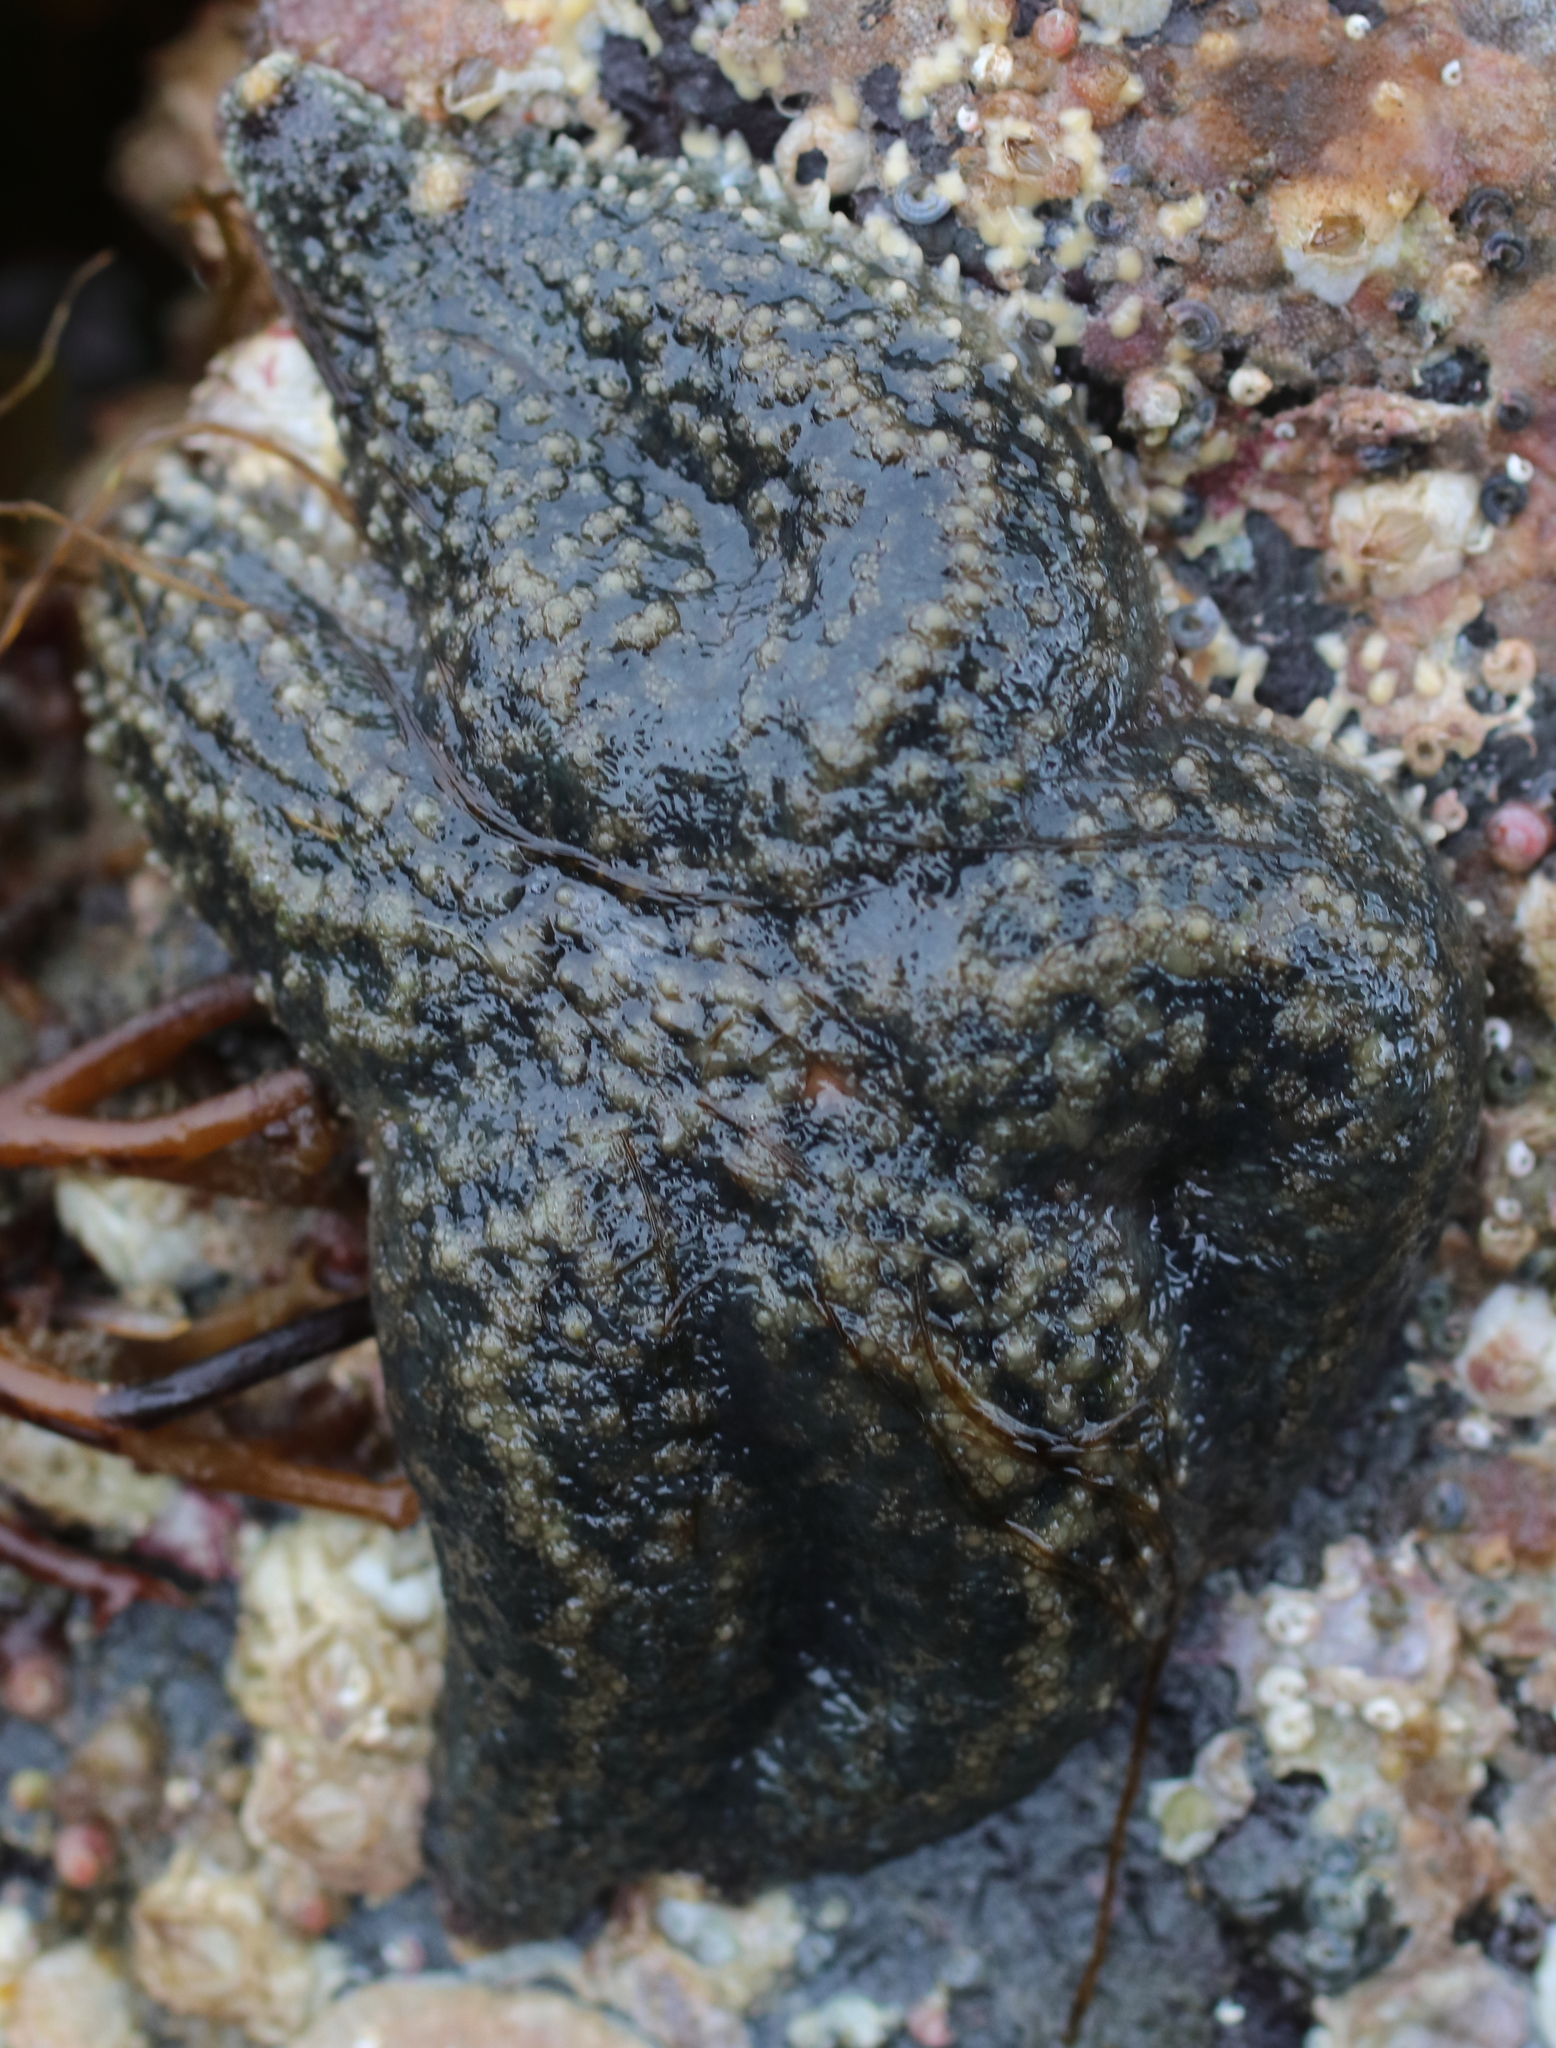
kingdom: Animalia
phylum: Echinodermata
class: Asteroidea
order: Forcipulatida
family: Asteriidae
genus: Leptasterias
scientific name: Leptasterias hexactis
